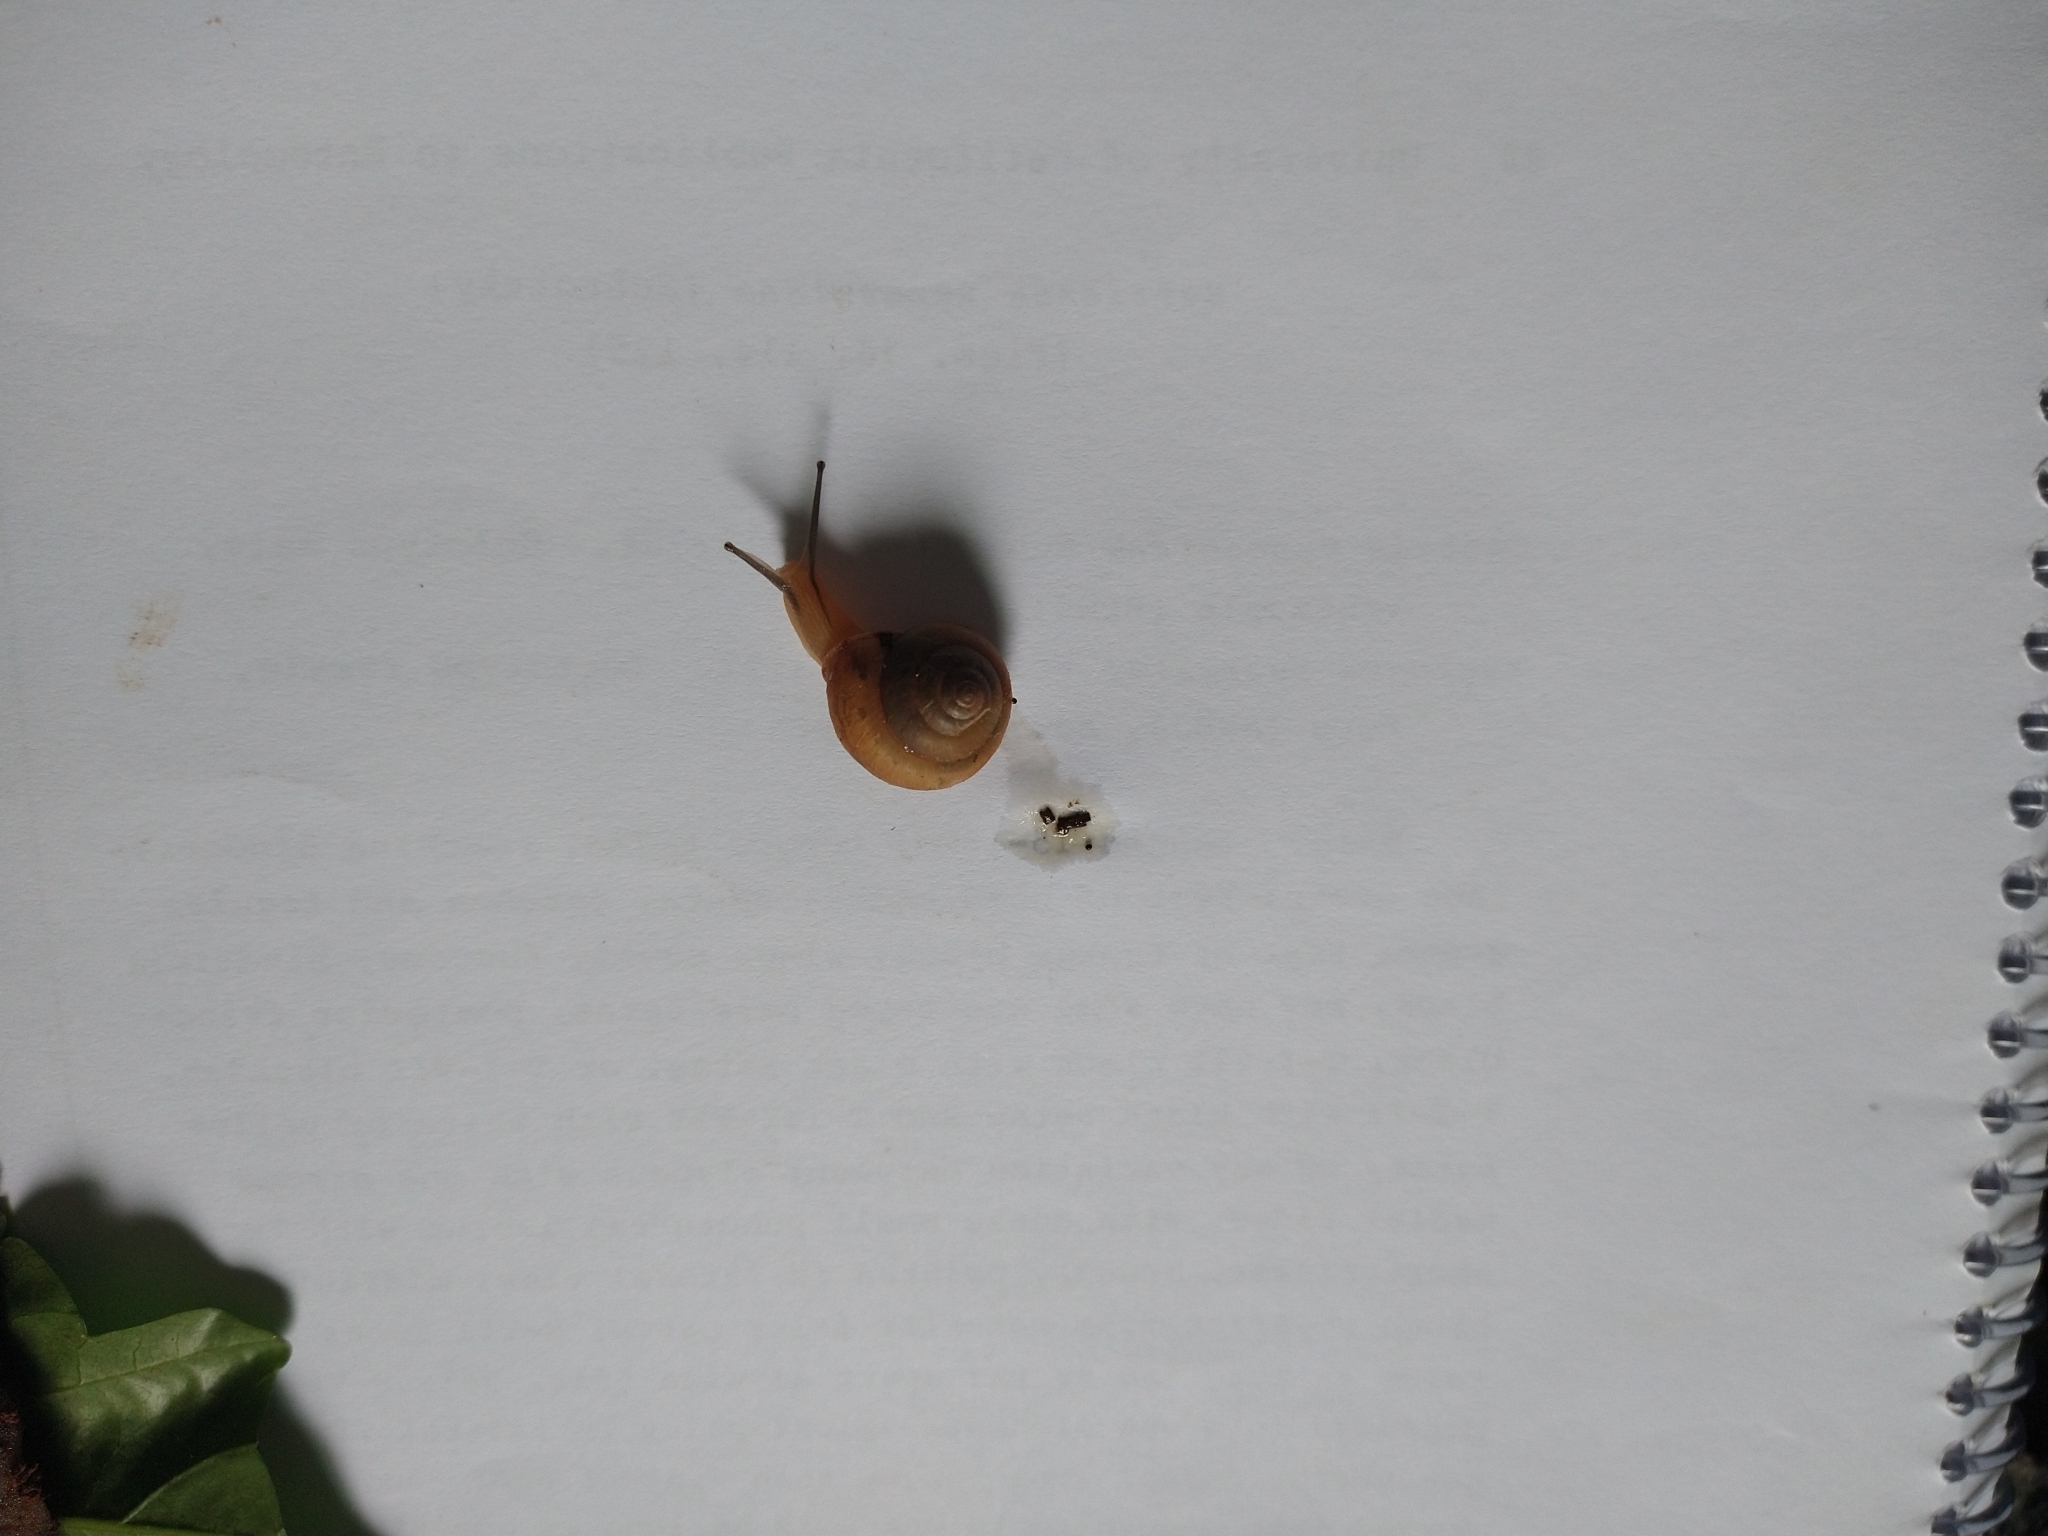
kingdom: Animalia
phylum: Mollusca
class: Gastropoda
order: Stylommatophora
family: Camaenidae
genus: Bradybaena
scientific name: Bradybaena similaris
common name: Asian trampsnail
